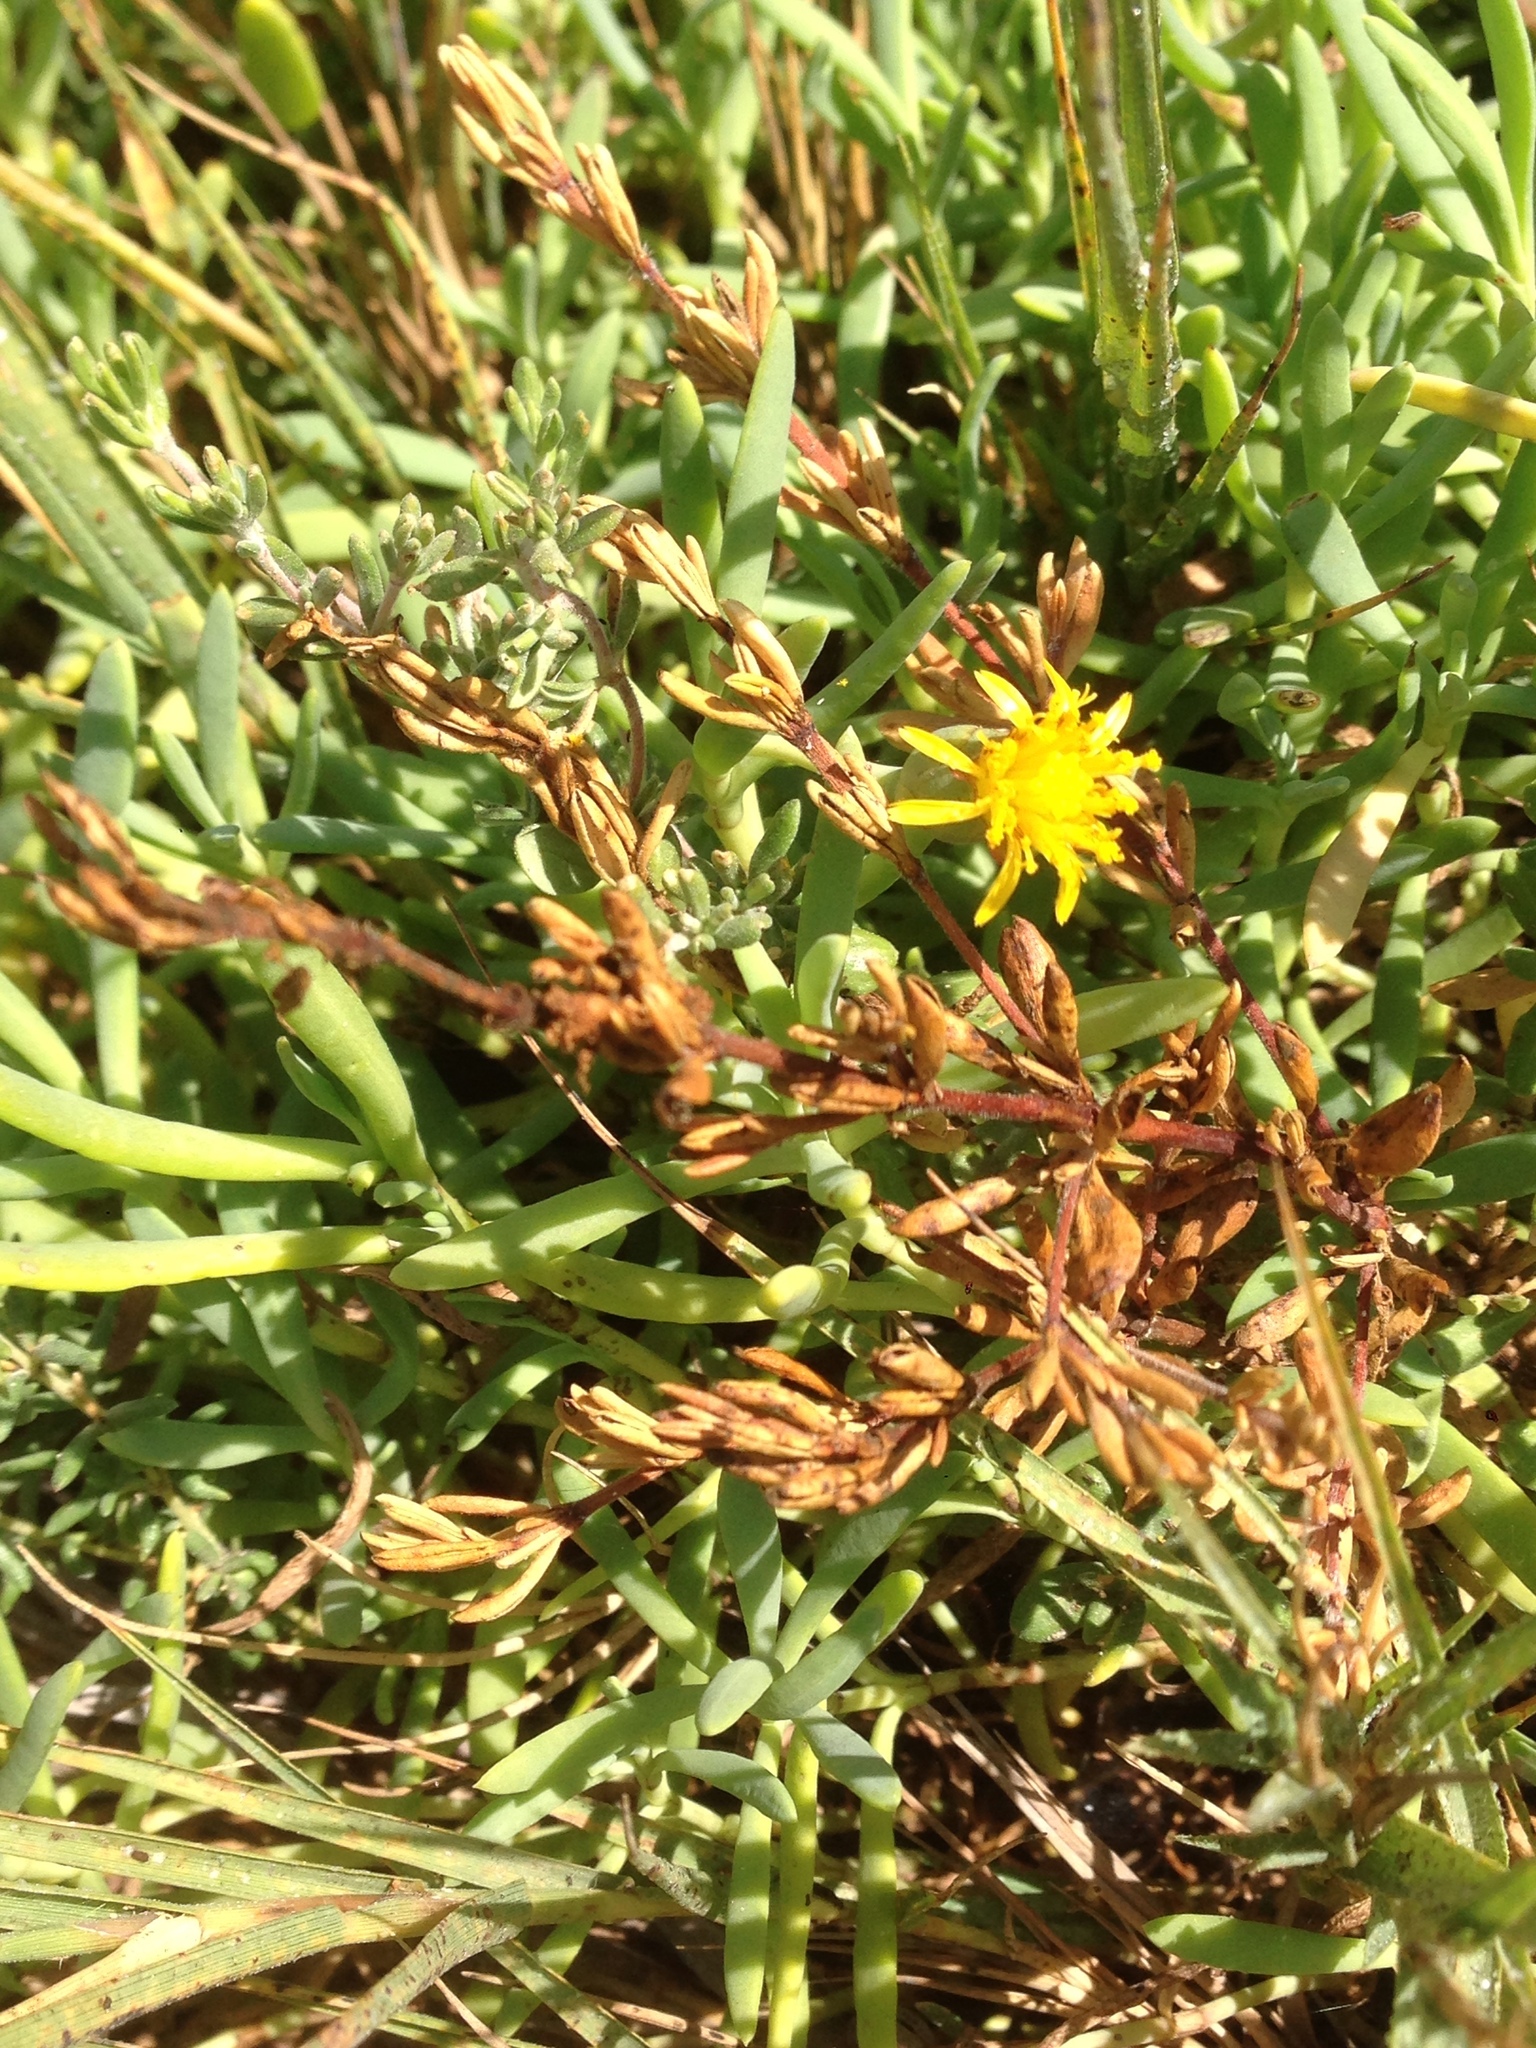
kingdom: Plantae
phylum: Tracheophyta
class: Magnoliopsida
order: Asterales
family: Asteraceae
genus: Jaumea
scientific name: Jaumea carnosa
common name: Fleshy jaumea
